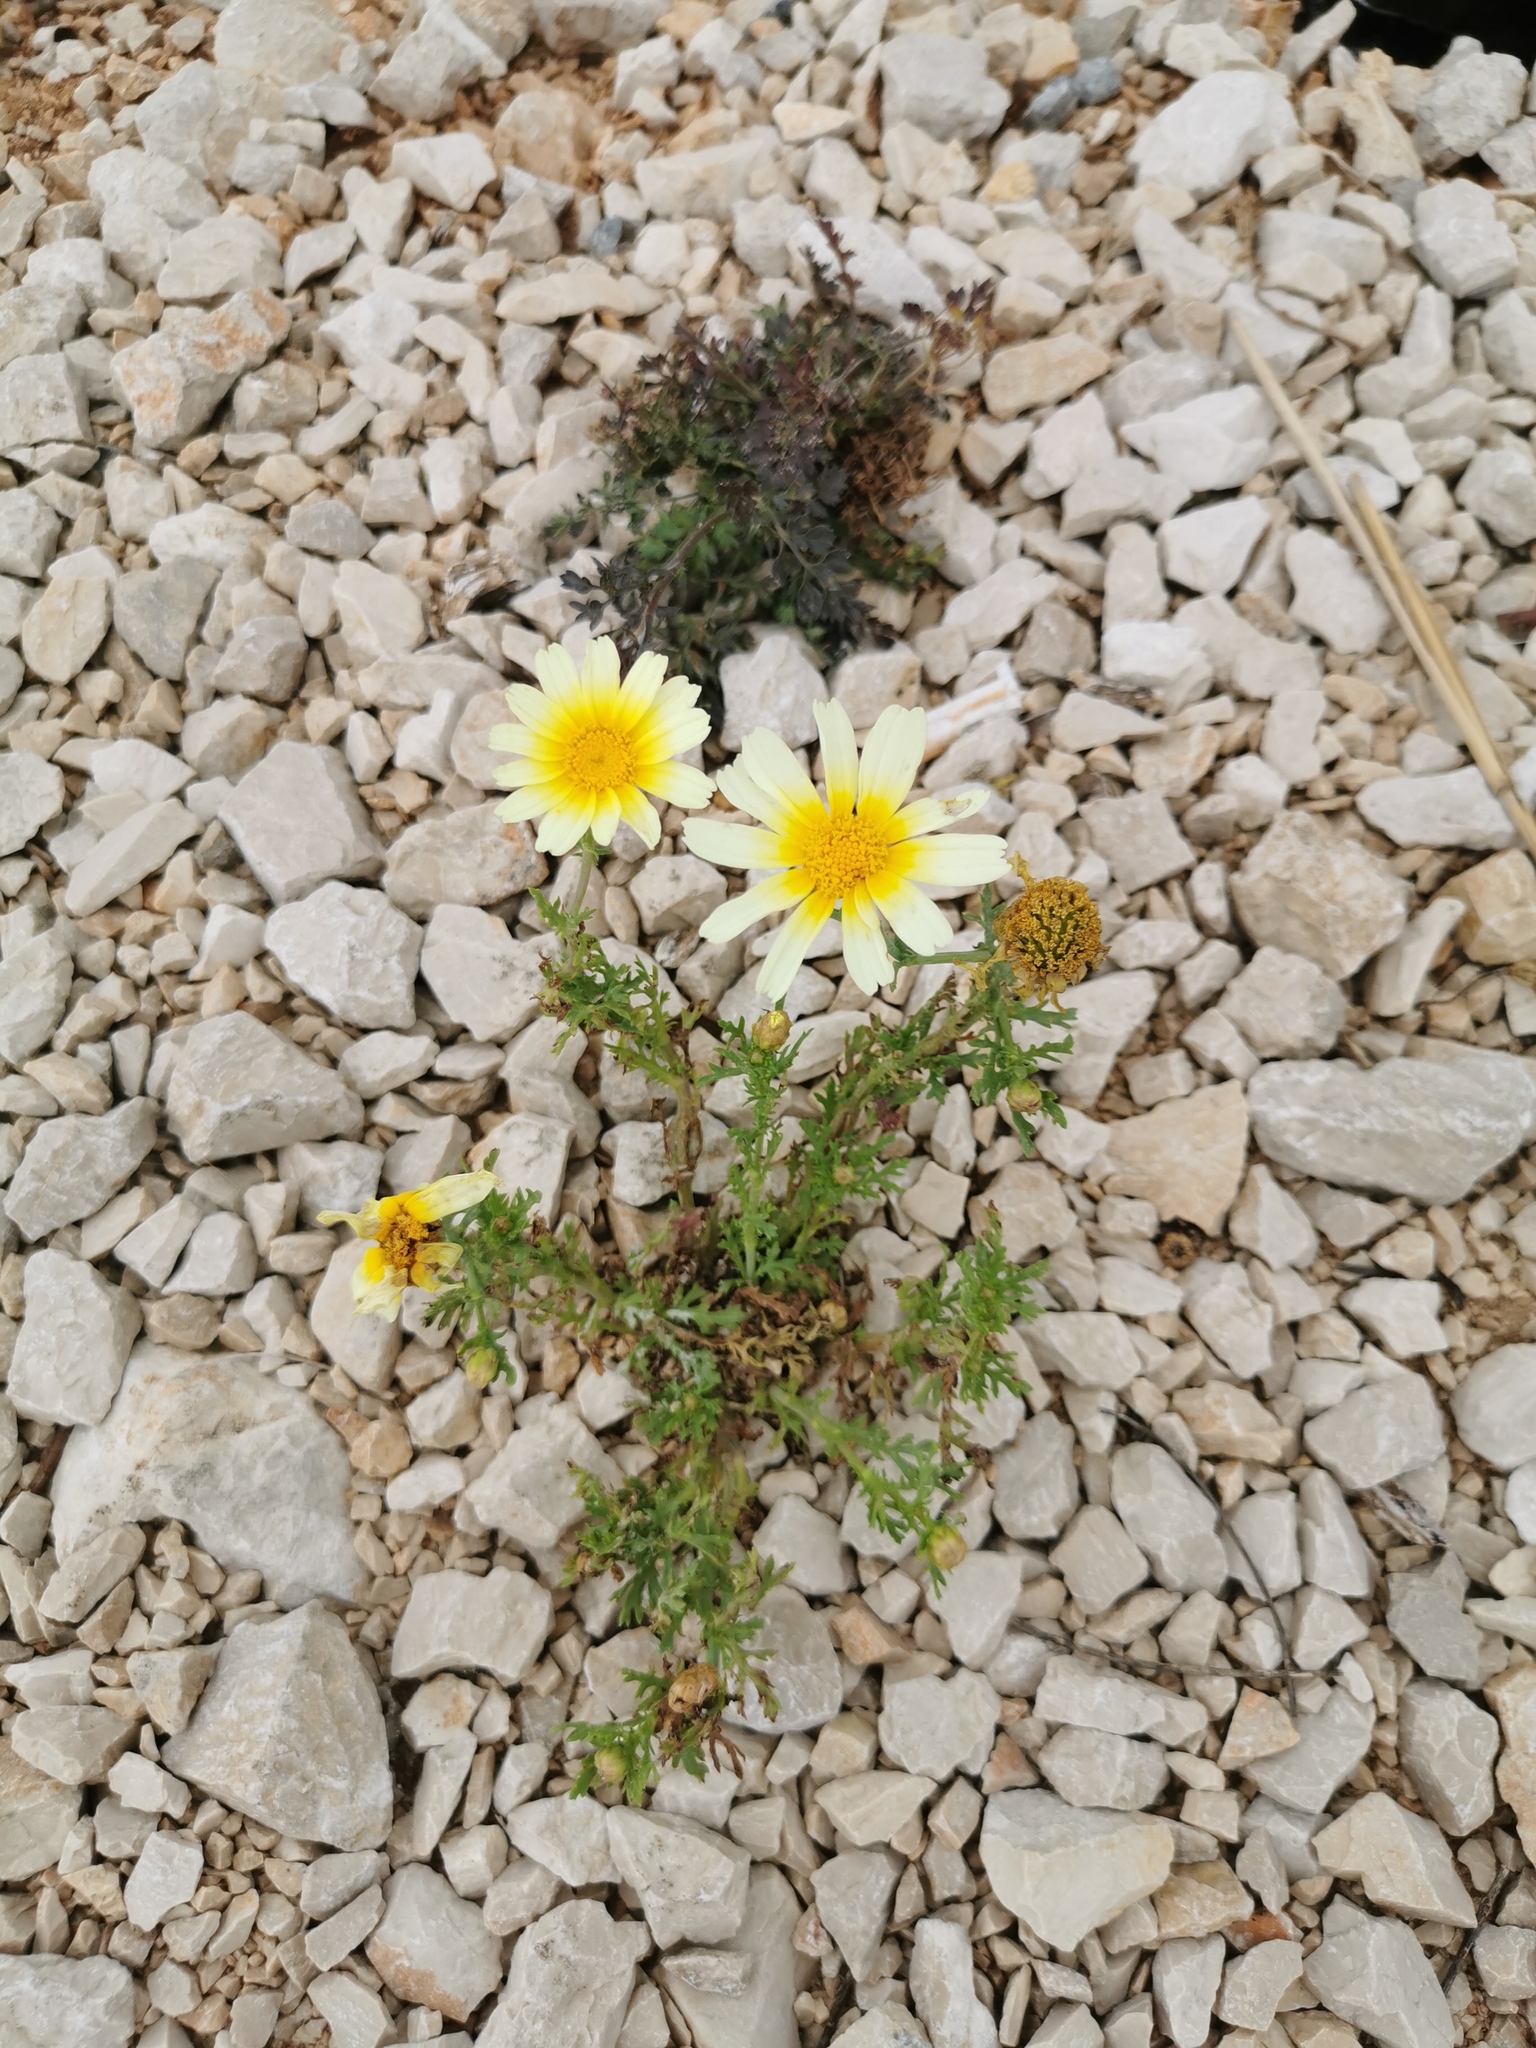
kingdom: Plantae
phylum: Tracheophyta
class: Magnoliopsida
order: Asterales
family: Asteraceae
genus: Glebionis
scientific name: Glebionis coronaria
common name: Crowndaisy
